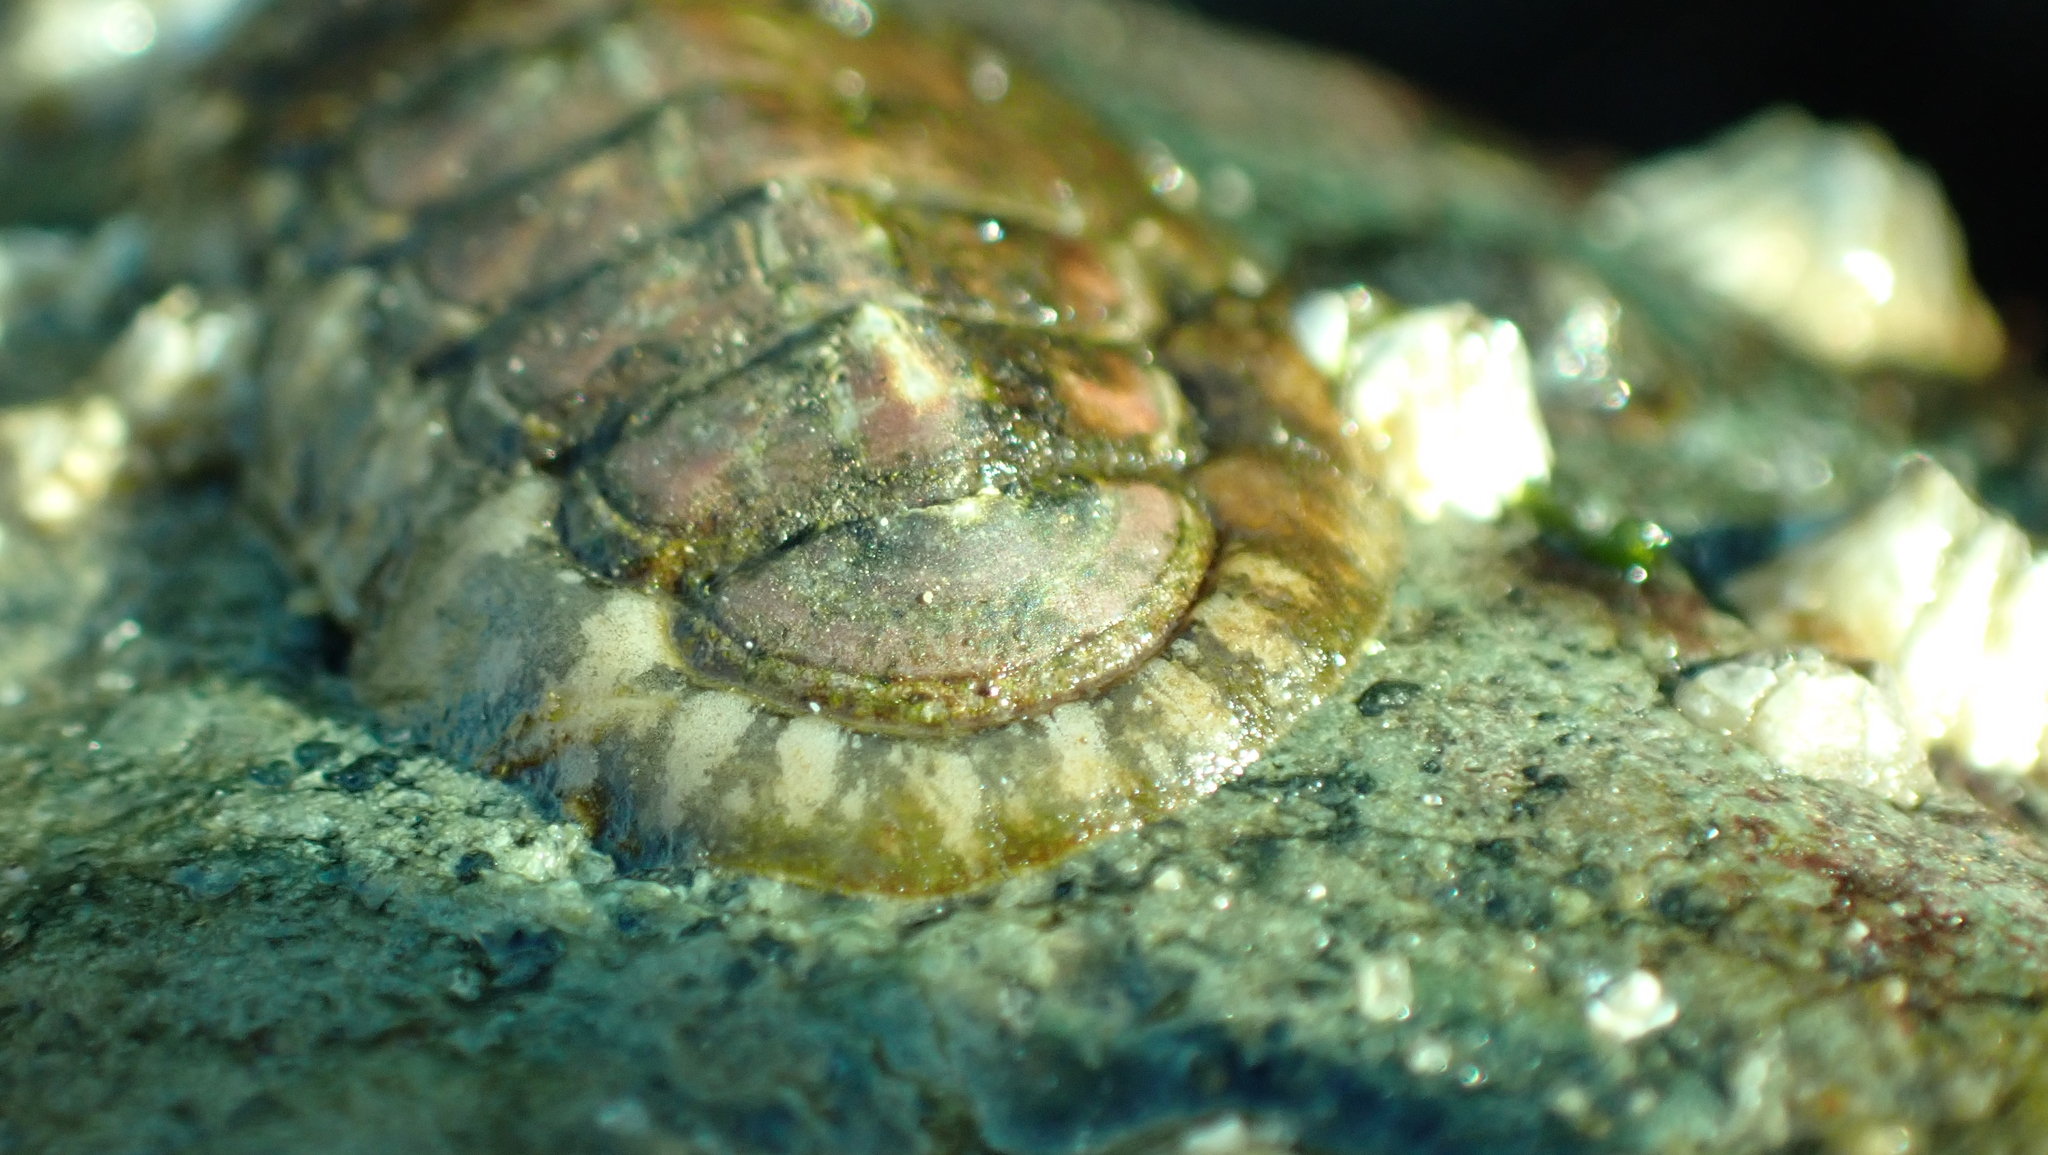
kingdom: Animalia
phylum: Mollusca
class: Polyplacophora
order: Chitonida
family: Tonicellidae
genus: Cyanoplax
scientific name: Cyanoplax dentiens
